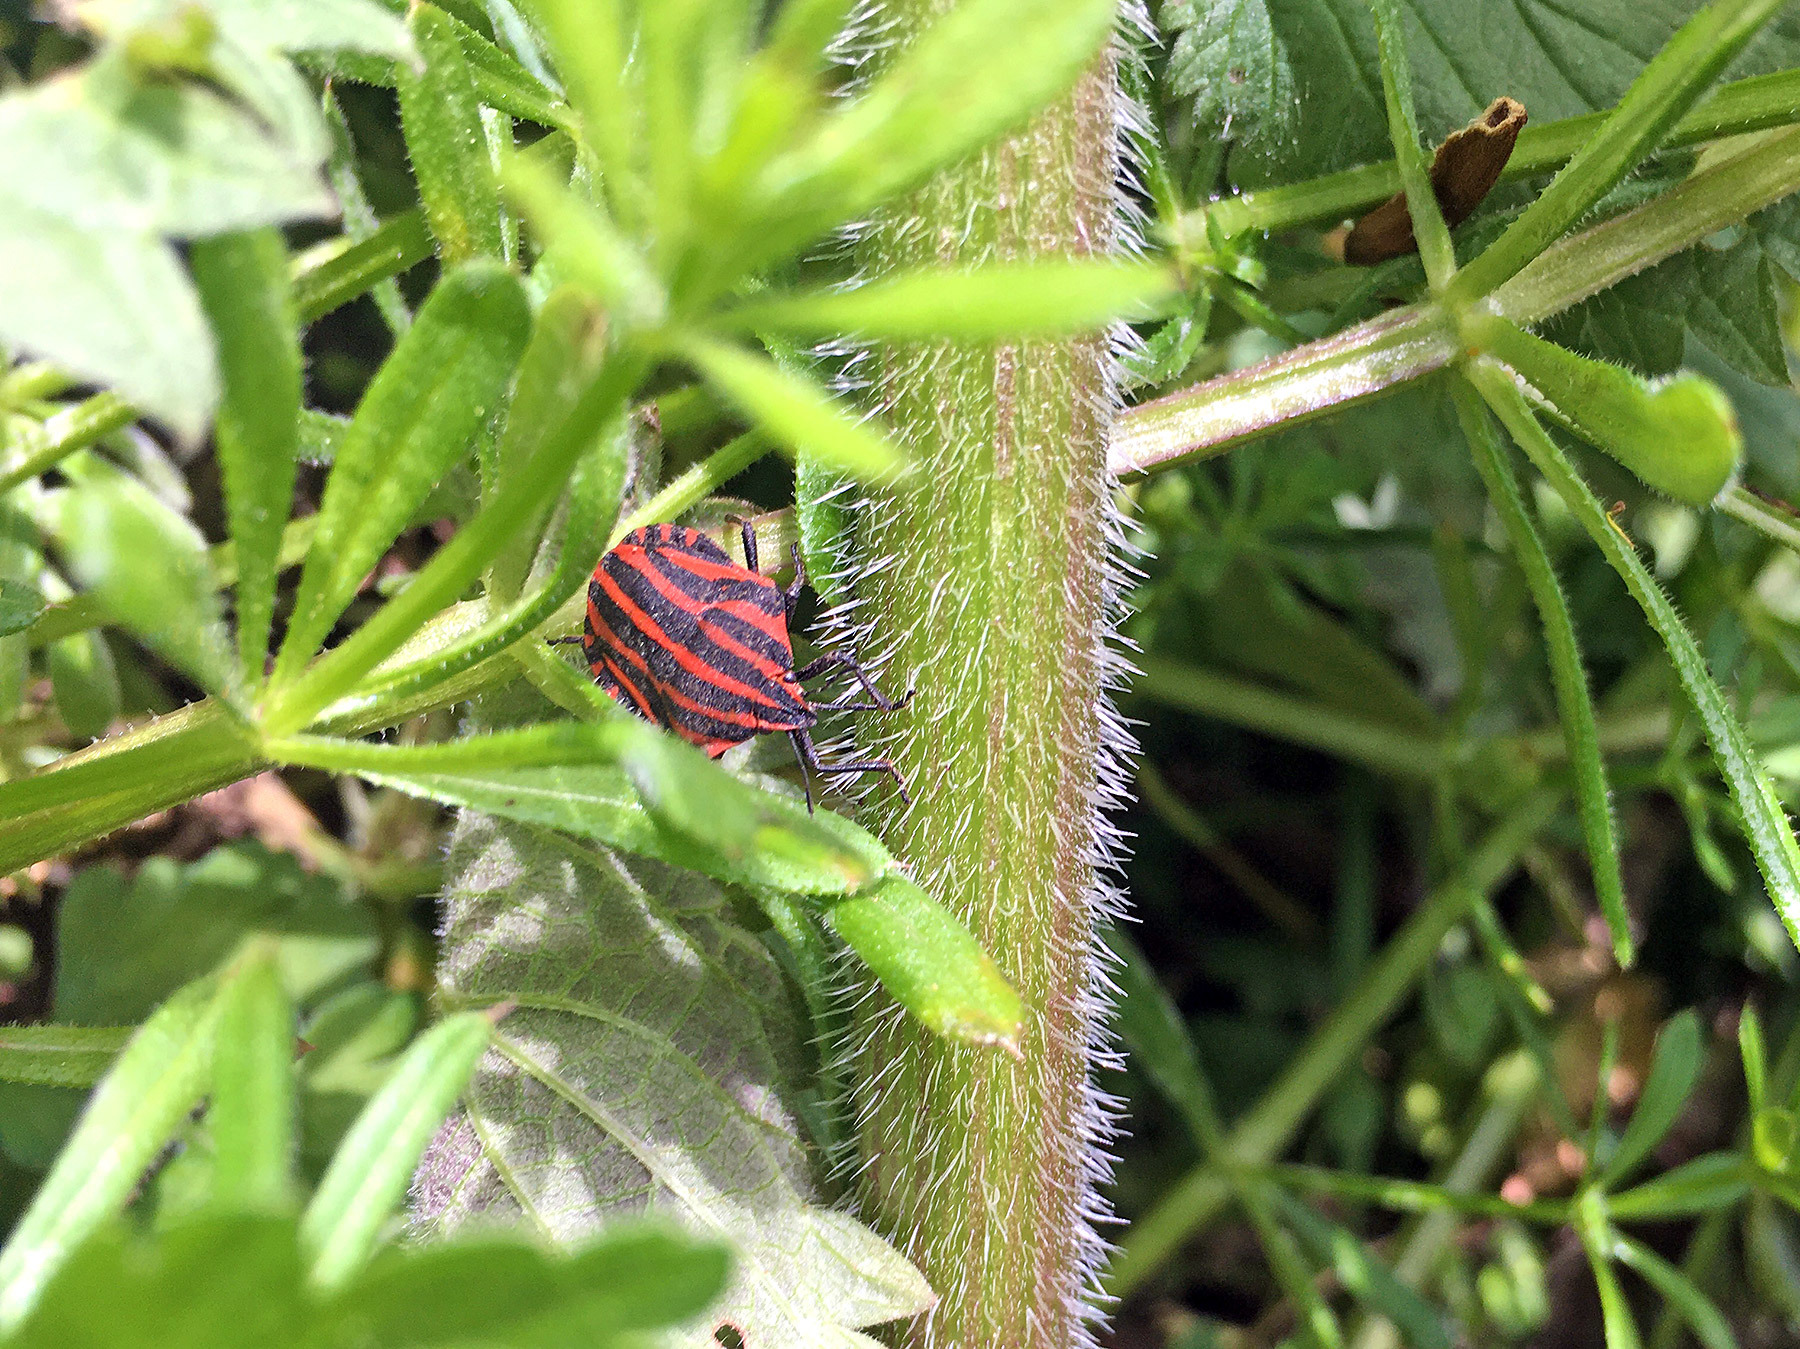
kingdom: Animalia
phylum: Arthropoda
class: Insecta
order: Hemiptera
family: Pentatomidae
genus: Graphosoma
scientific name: Graphosoma italicum
